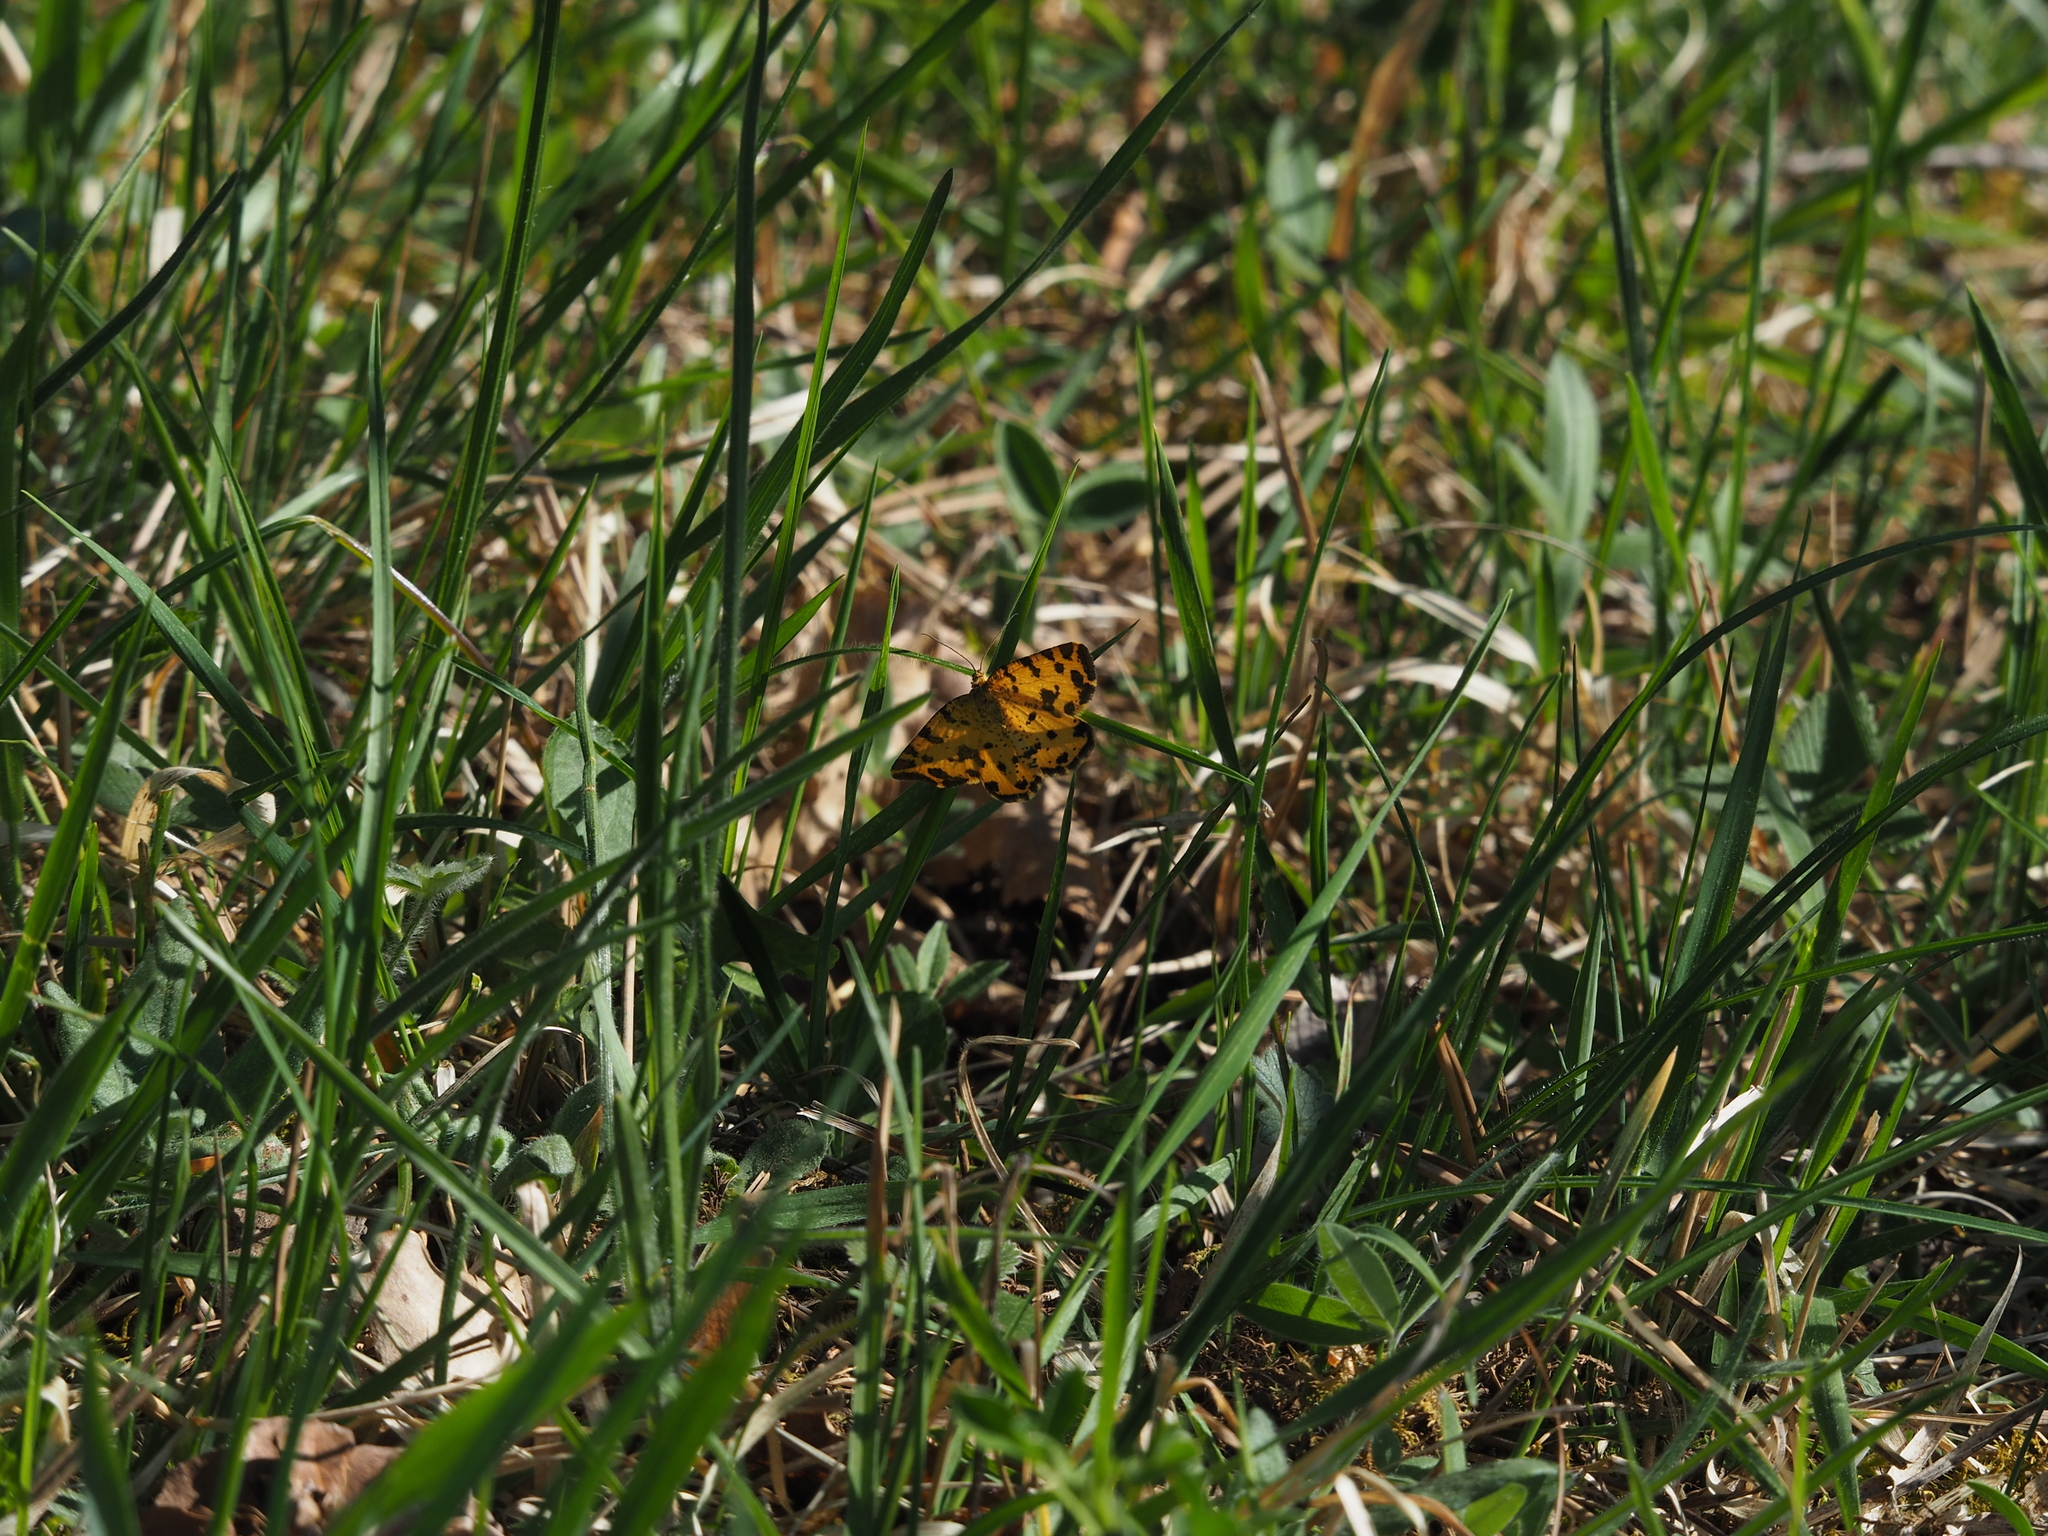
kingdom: Animalia
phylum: Arthropoda
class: Insecta
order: Lepidoptera
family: Geometridae
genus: Pseudopanthera
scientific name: Pseudopanthera macularia
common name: Speckled yellow
